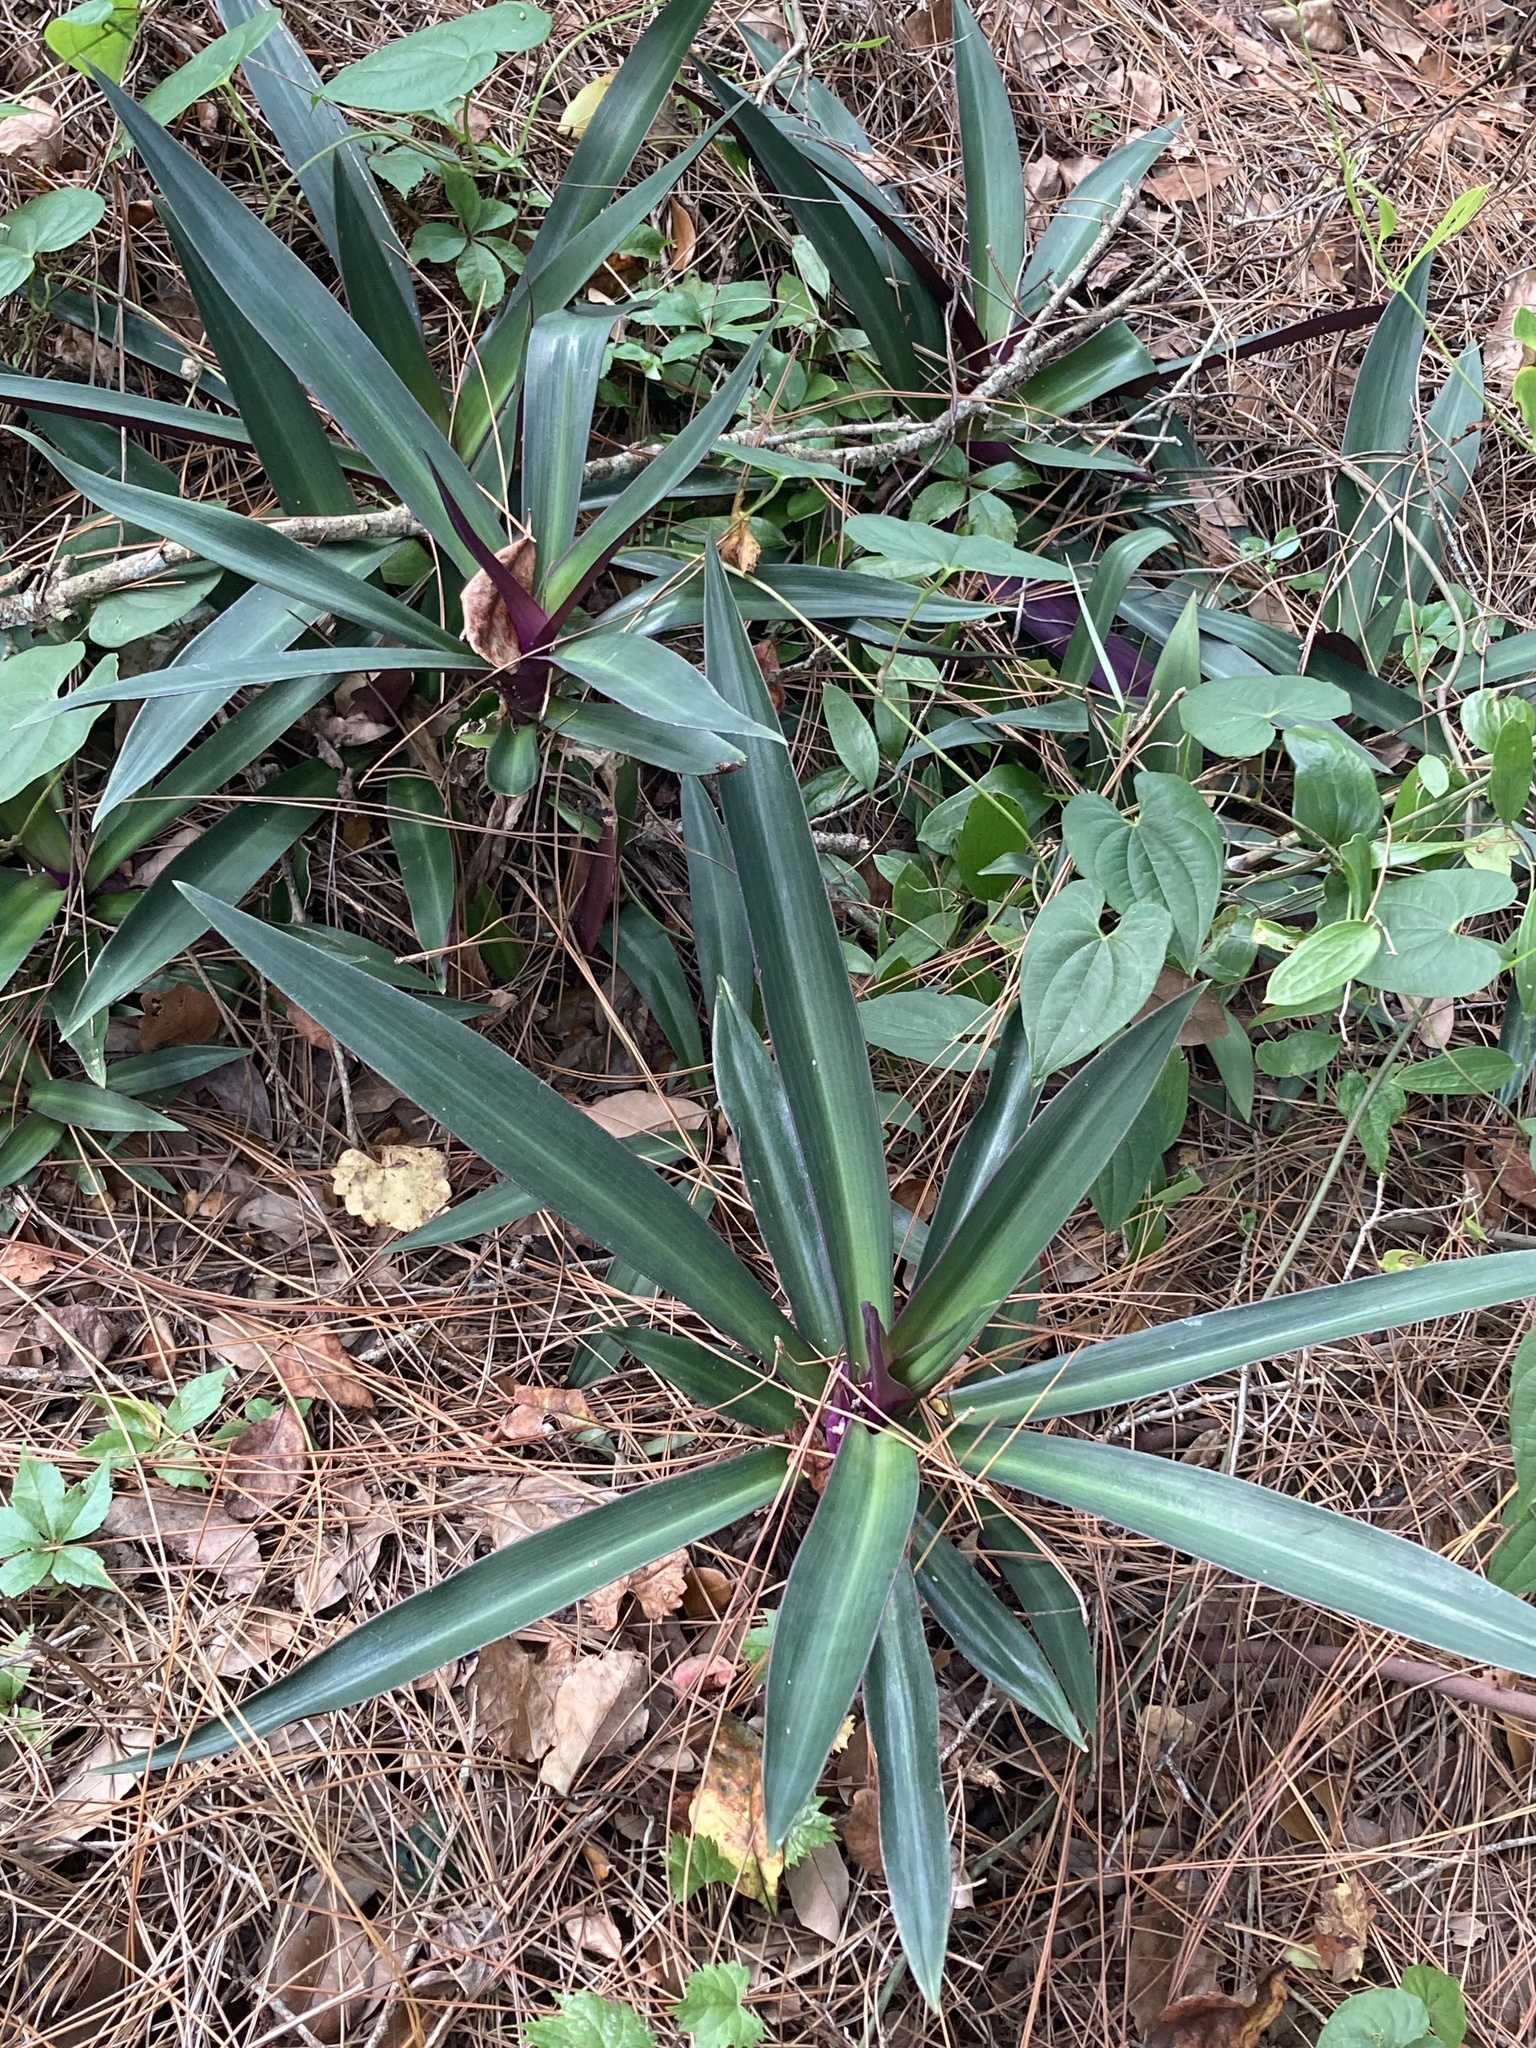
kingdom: Plantae
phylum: Tracheophyta
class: Liliopsida
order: Commelinales
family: Commelinaceae
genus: Tradescantia
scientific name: Tradescantia spathacea
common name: Boatlily
